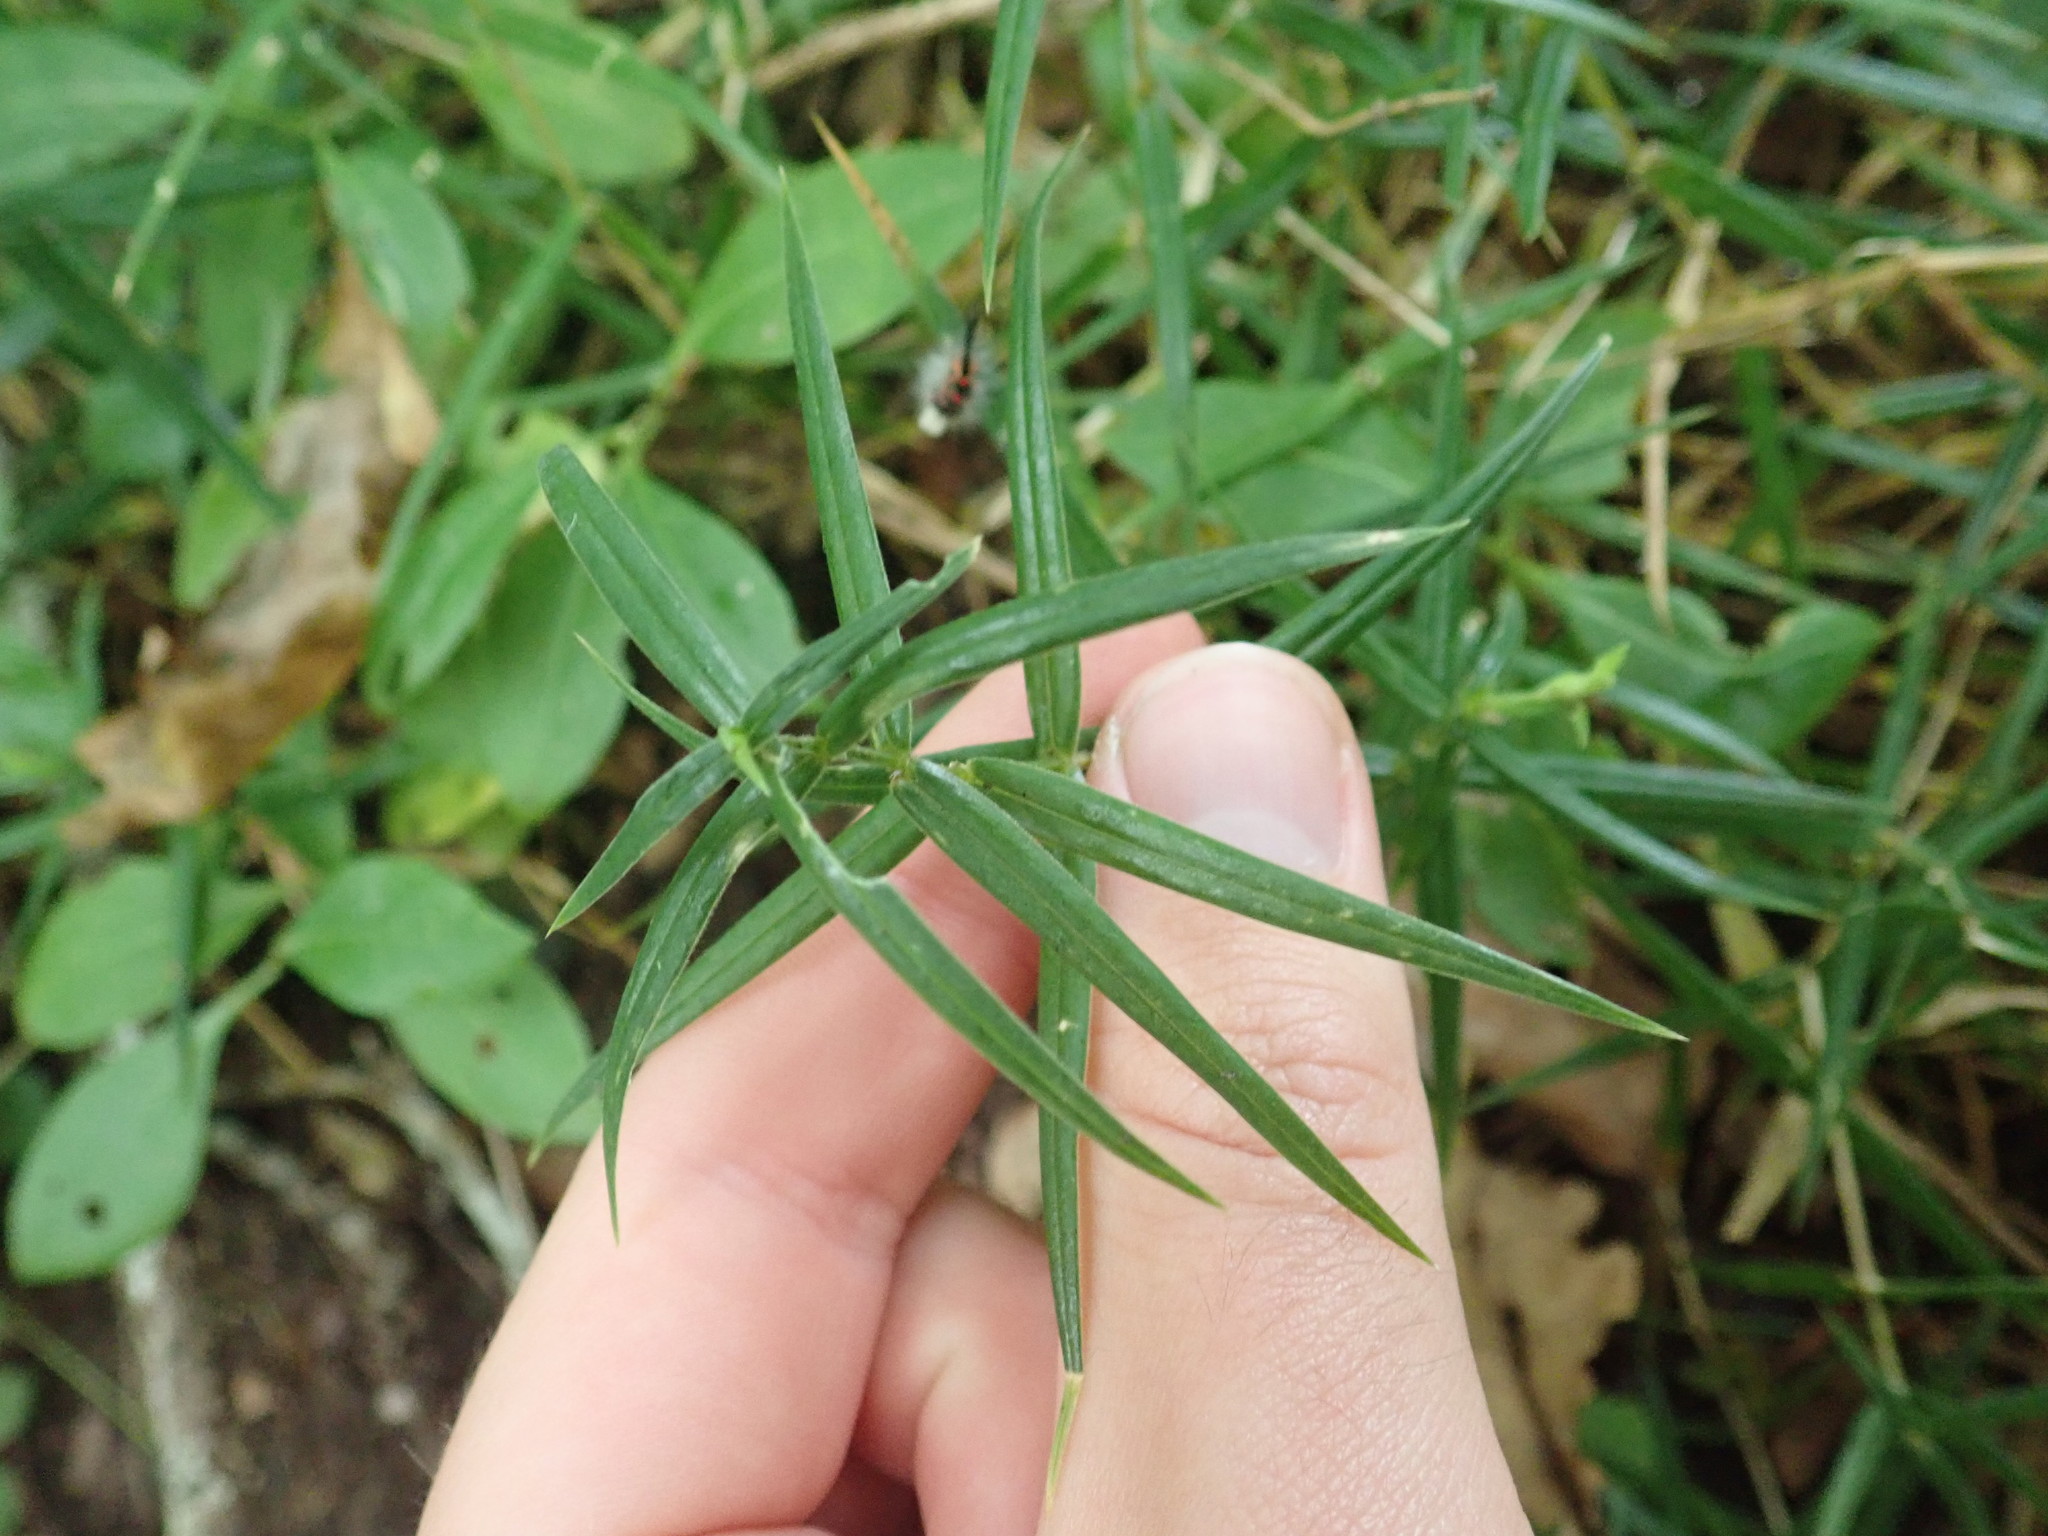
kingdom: Plantae
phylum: Tracheophyta
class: Magnoliopsida
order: Caryophyllales
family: Caryophyllaceae
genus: Rabelera
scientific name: Rabelera holostea
